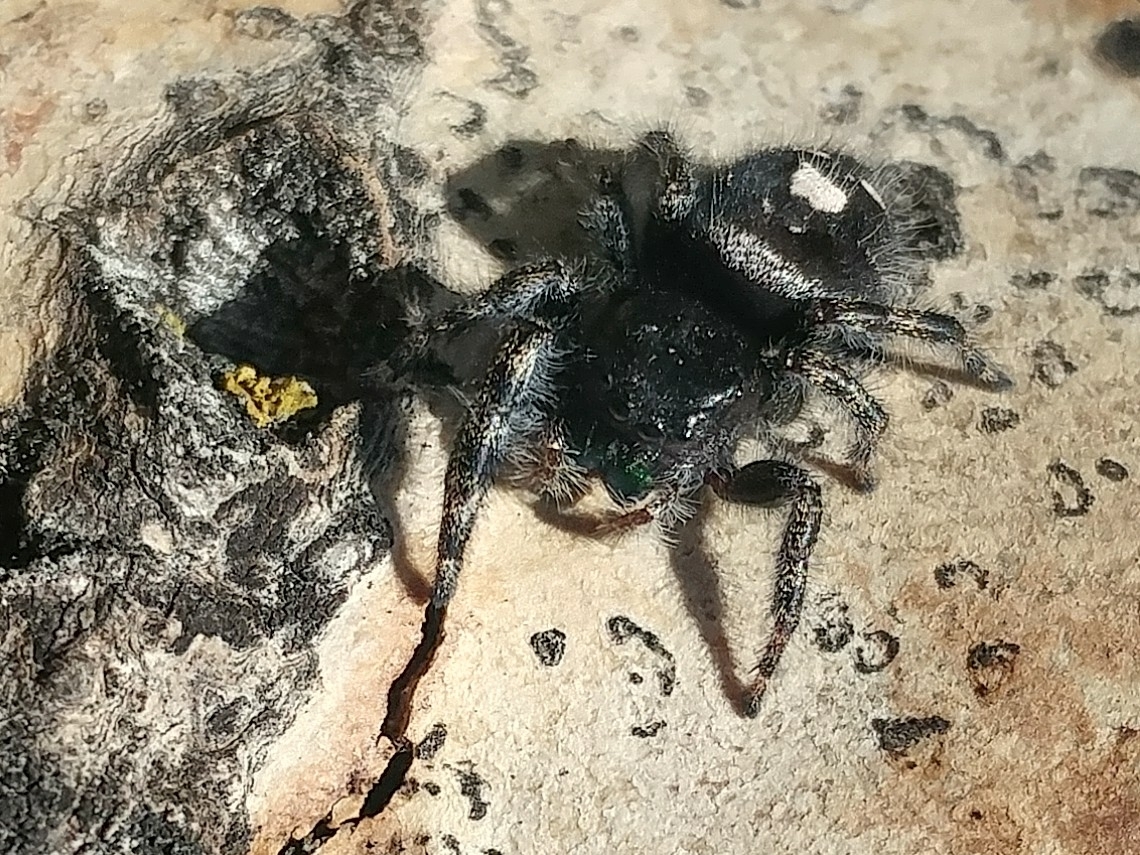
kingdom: Animalia
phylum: Arthropoda
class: Arachnida
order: Araneae
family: Salticidae
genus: Phidippus
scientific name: Phidippus audax
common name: Bold jumper
